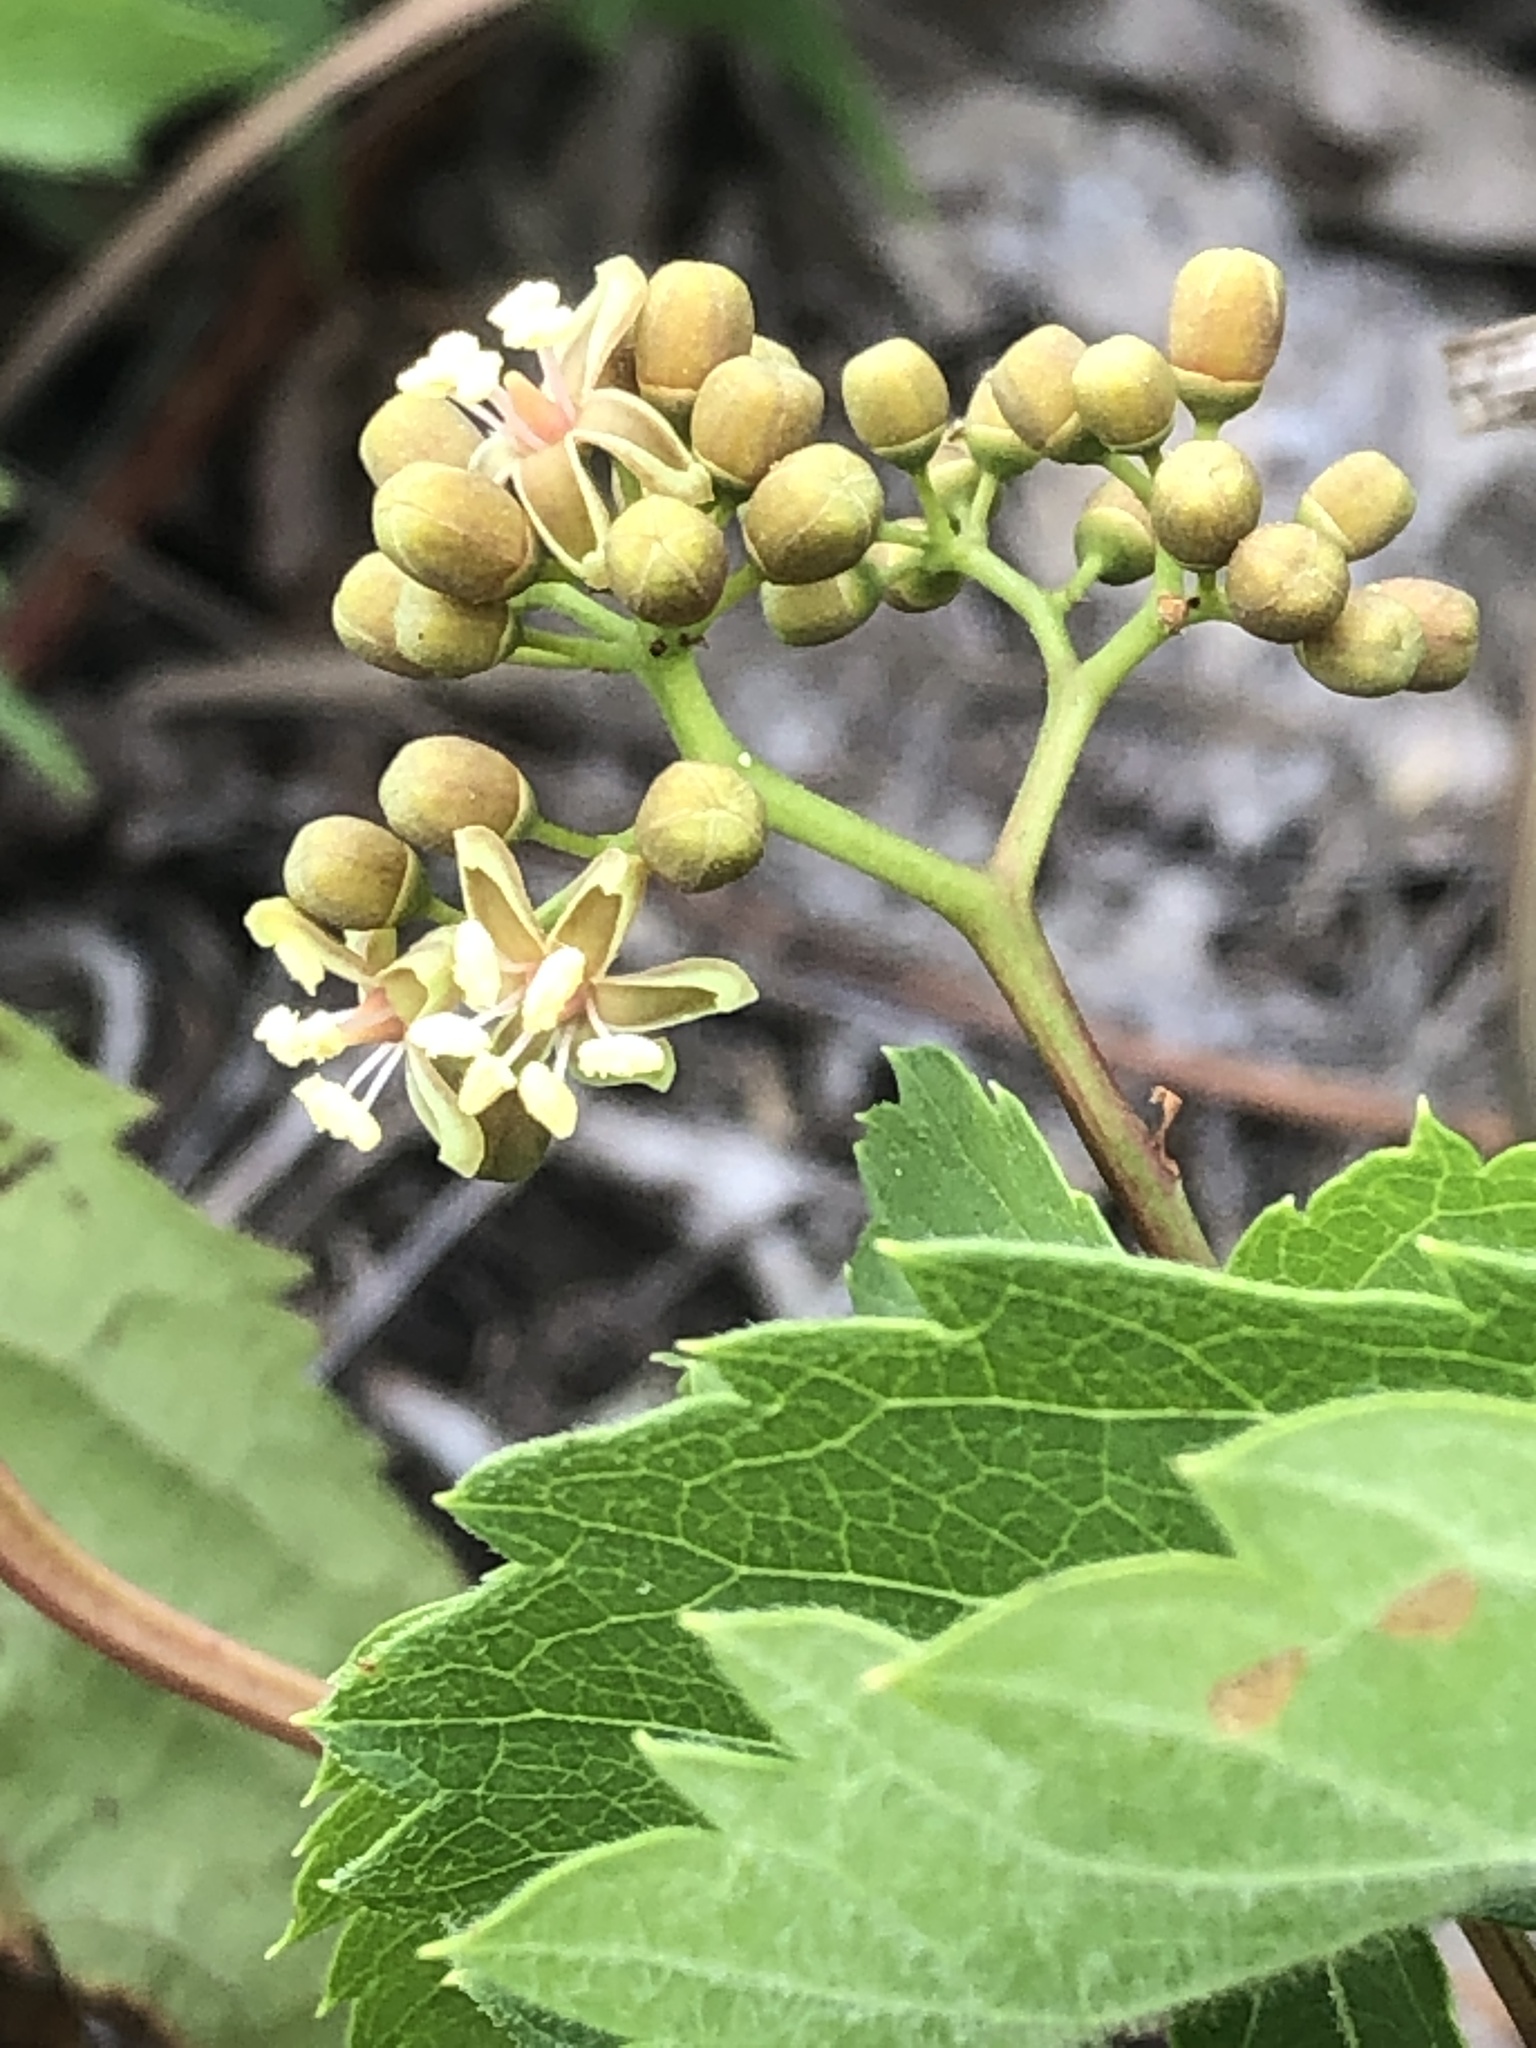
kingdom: Plantae
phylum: Tracheophyta
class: Magnoliopsida
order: Vitales
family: Vitaceae
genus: Parthenocissus
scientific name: Parthenocissus inserta
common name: False virginia-creeper
